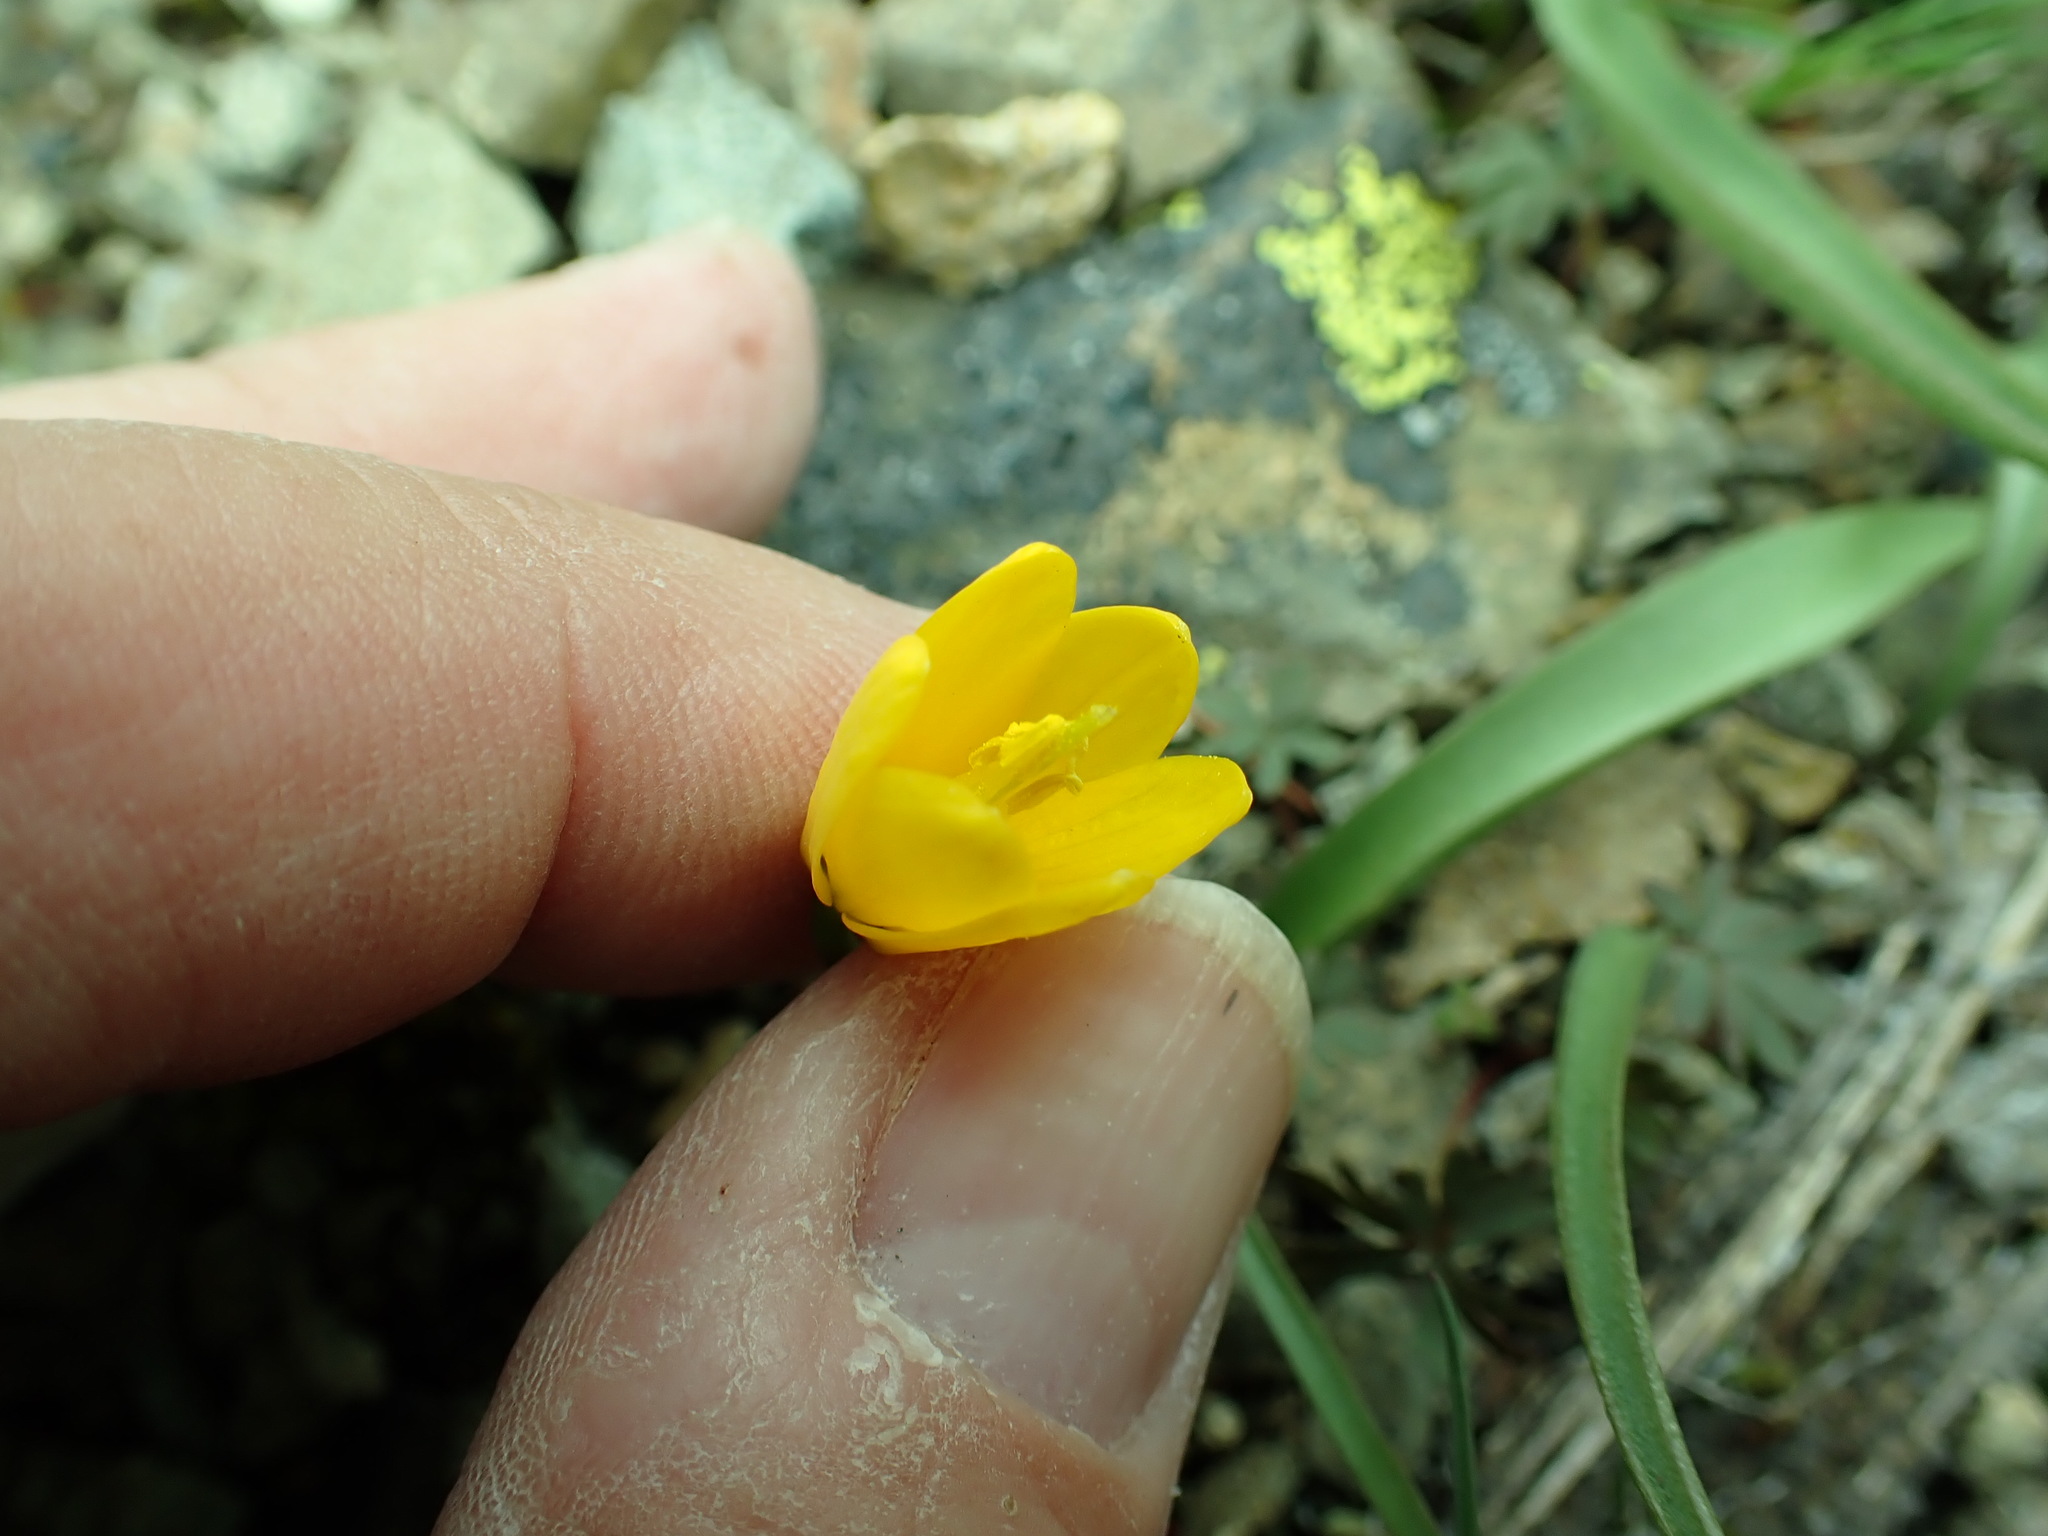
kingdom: Plantae
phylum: Tracheophyta
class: Liliopsida
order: Liliales
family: Liliaceae
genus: Fritillaria
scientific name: Fritillaria pudica
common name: Yellow fritillary
